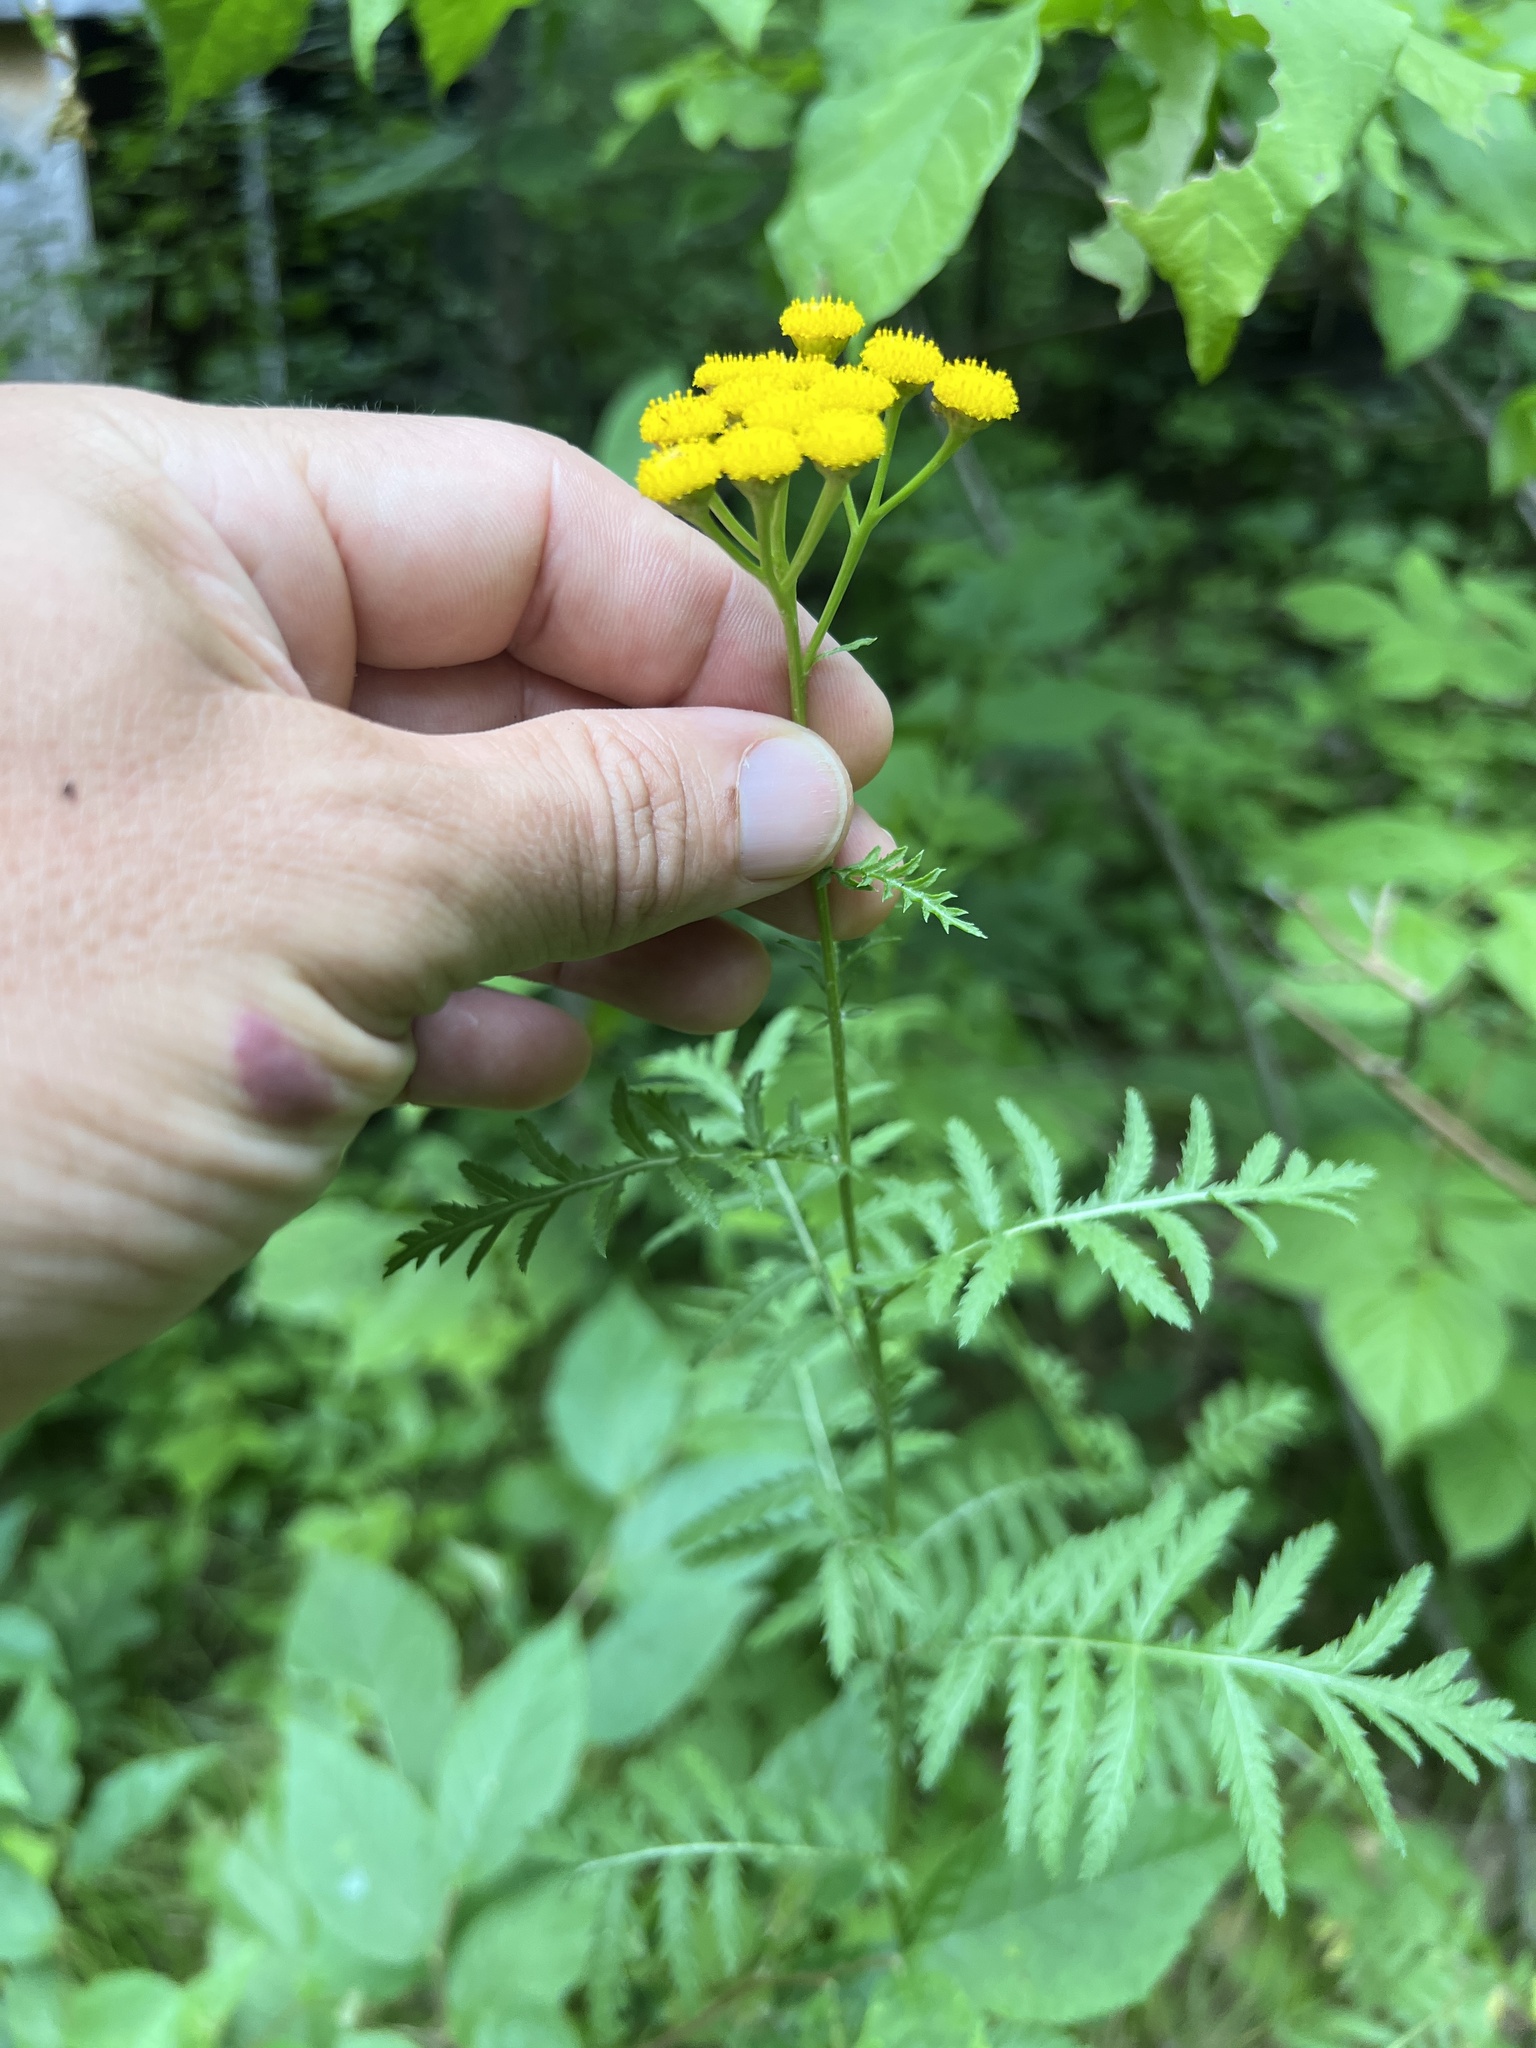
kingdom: Plantae
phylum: Tracheophyta
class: Magnoliopsida
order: Asterales
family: Asteraceae
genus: Tanacetum
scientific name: Tanacetum vulgare
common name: Common tansy
